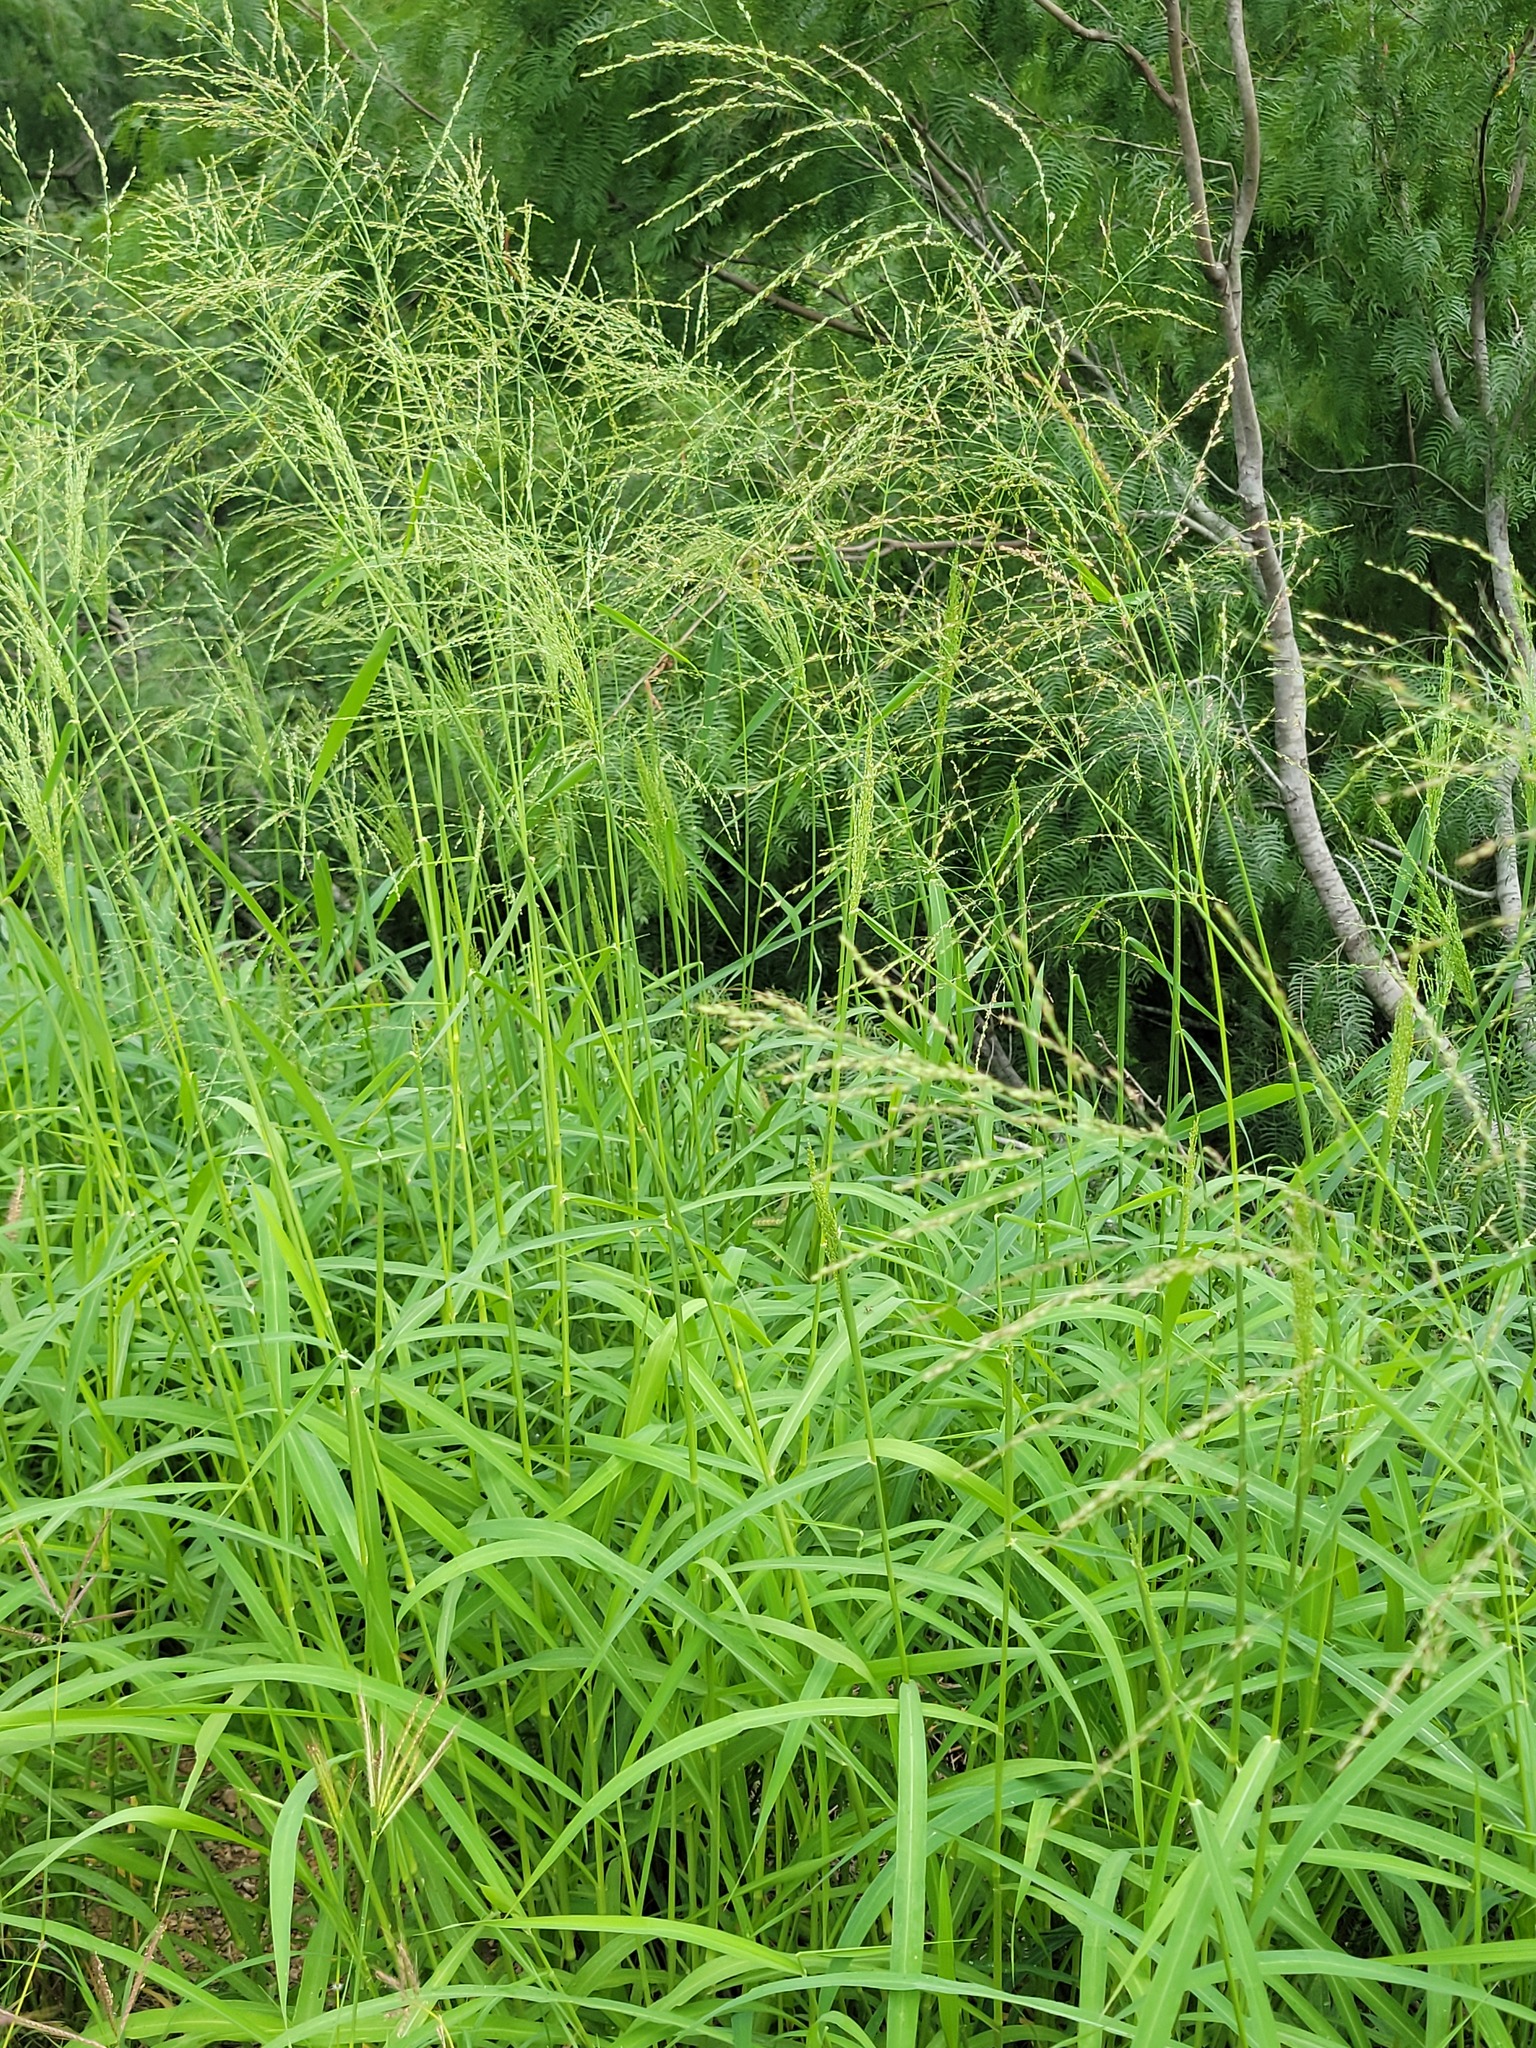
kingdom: Plantae
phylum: Tracheophyta
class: Liliopsida
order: Poales
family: Poaceae
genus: Megathyrsus
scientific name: Megathyrsus maximus
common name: Guineagrass
